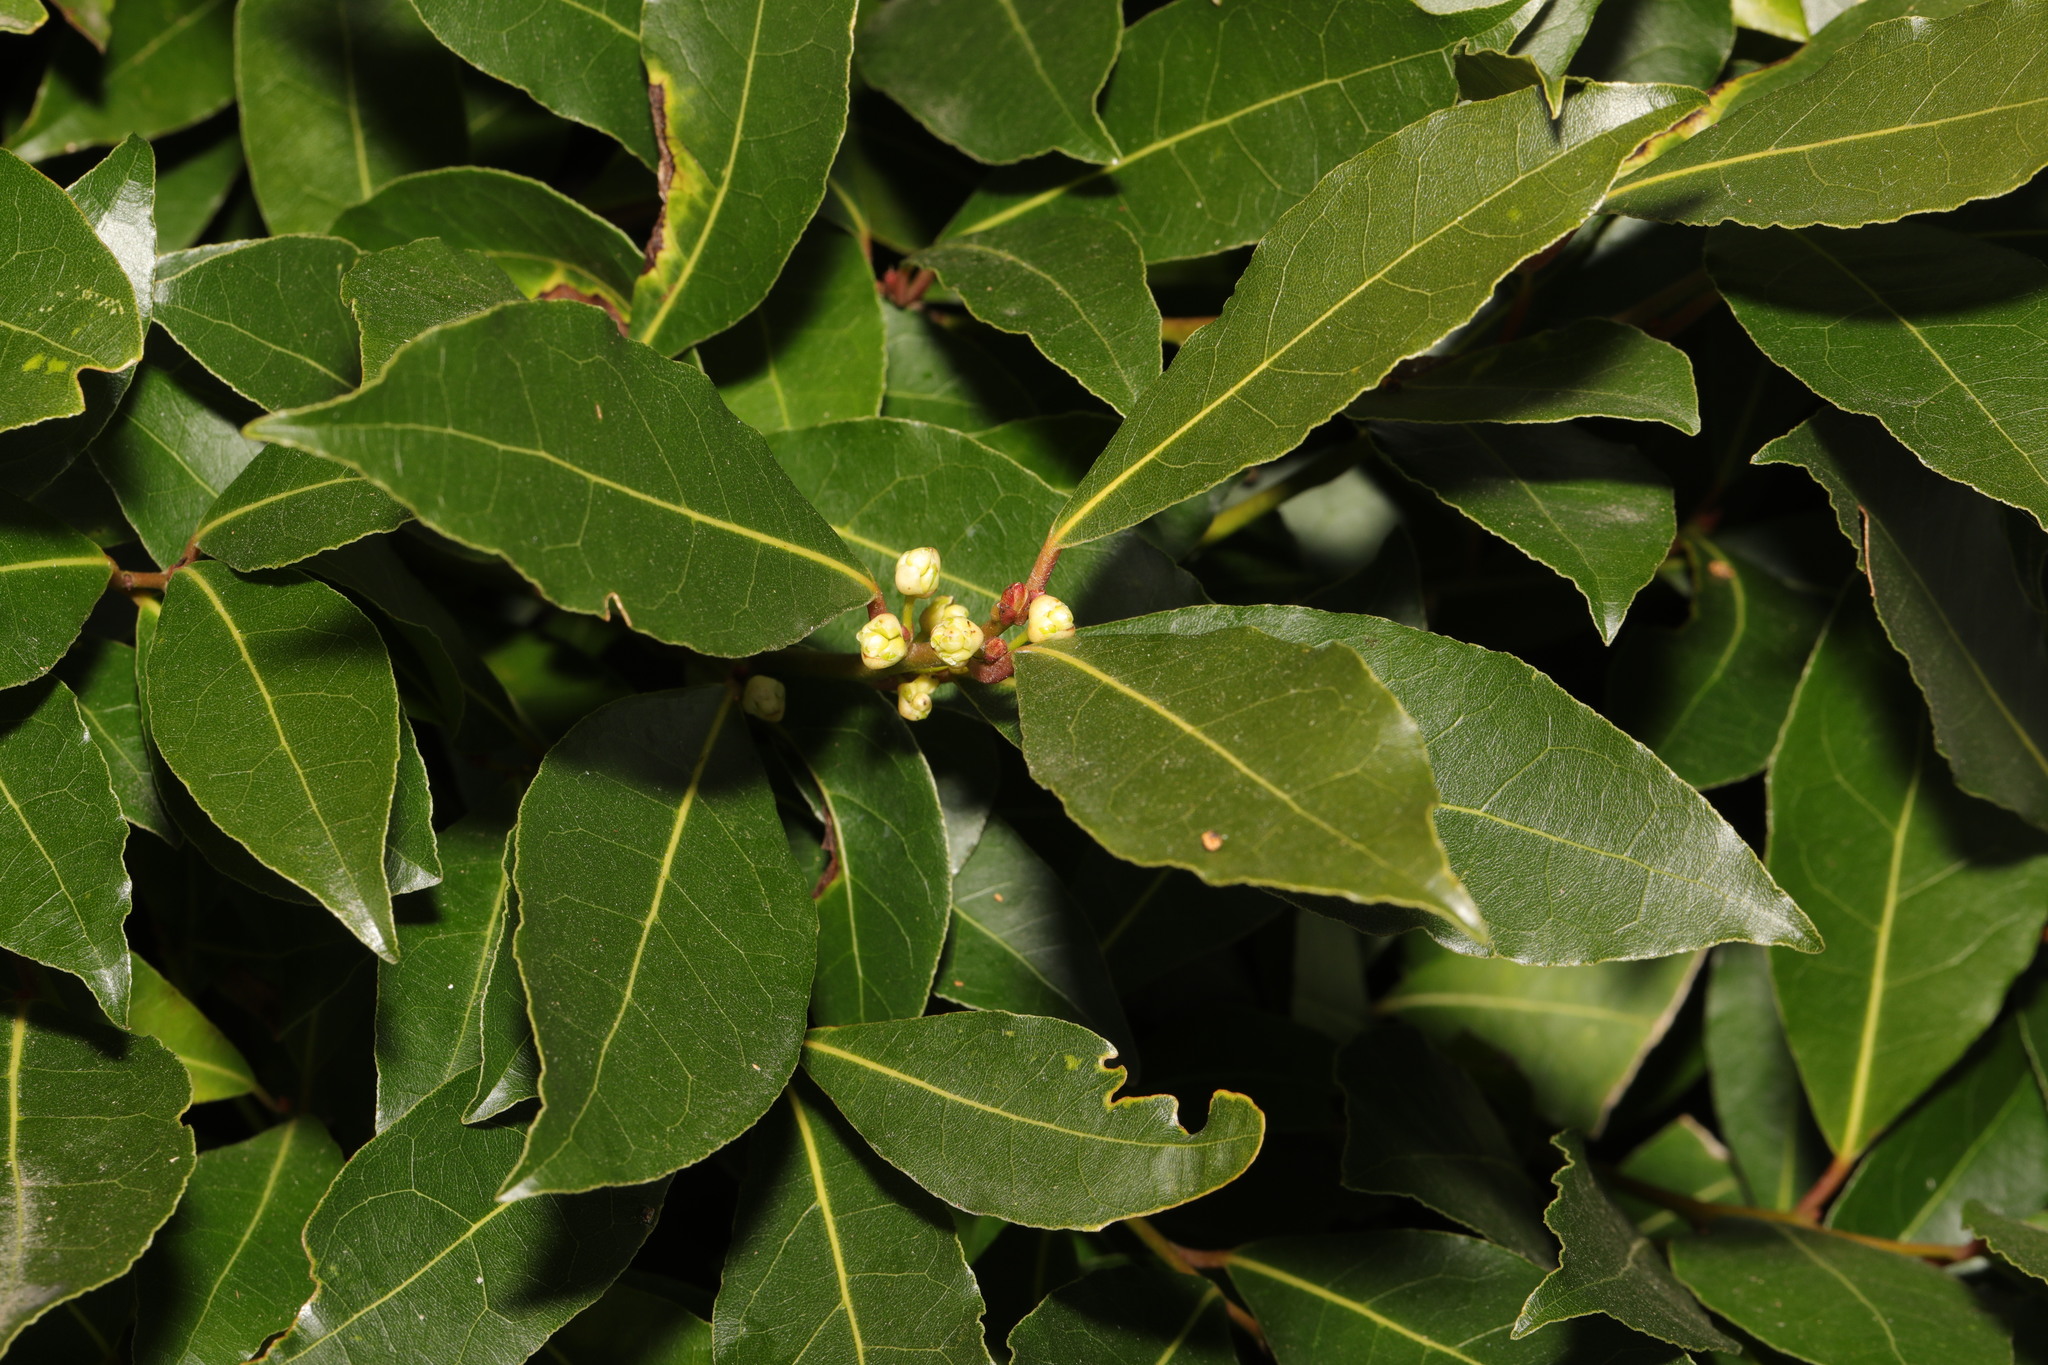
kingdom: Plantae
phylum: Tracheophyta
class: Magnoliopsida
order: Laurales
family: Lauraceae
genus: Laurus
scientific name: Laurus nobilis
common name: Bay
